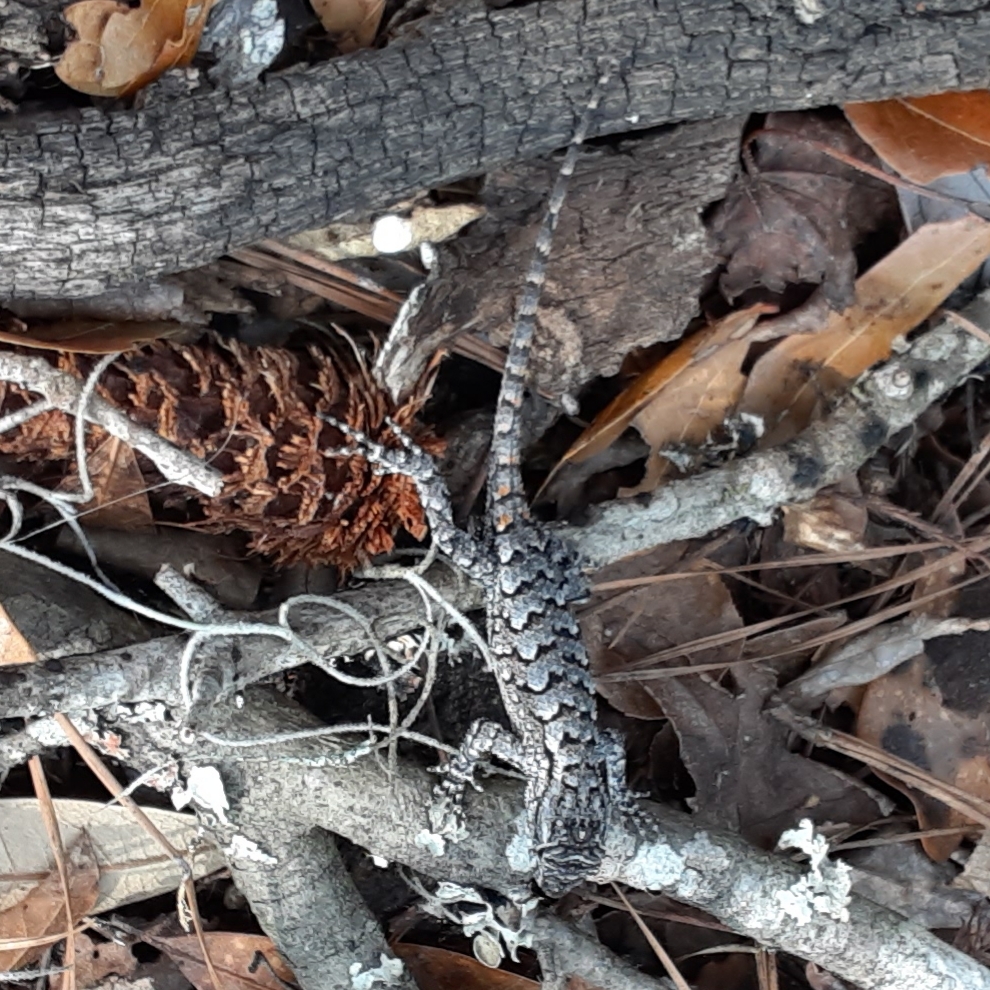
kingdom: Animalia
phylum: Chordata
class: Squamata
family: Phrynosomatidae
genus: Sceloporus
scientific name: Sceloporus undulatus
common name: Eastern fence lizard
